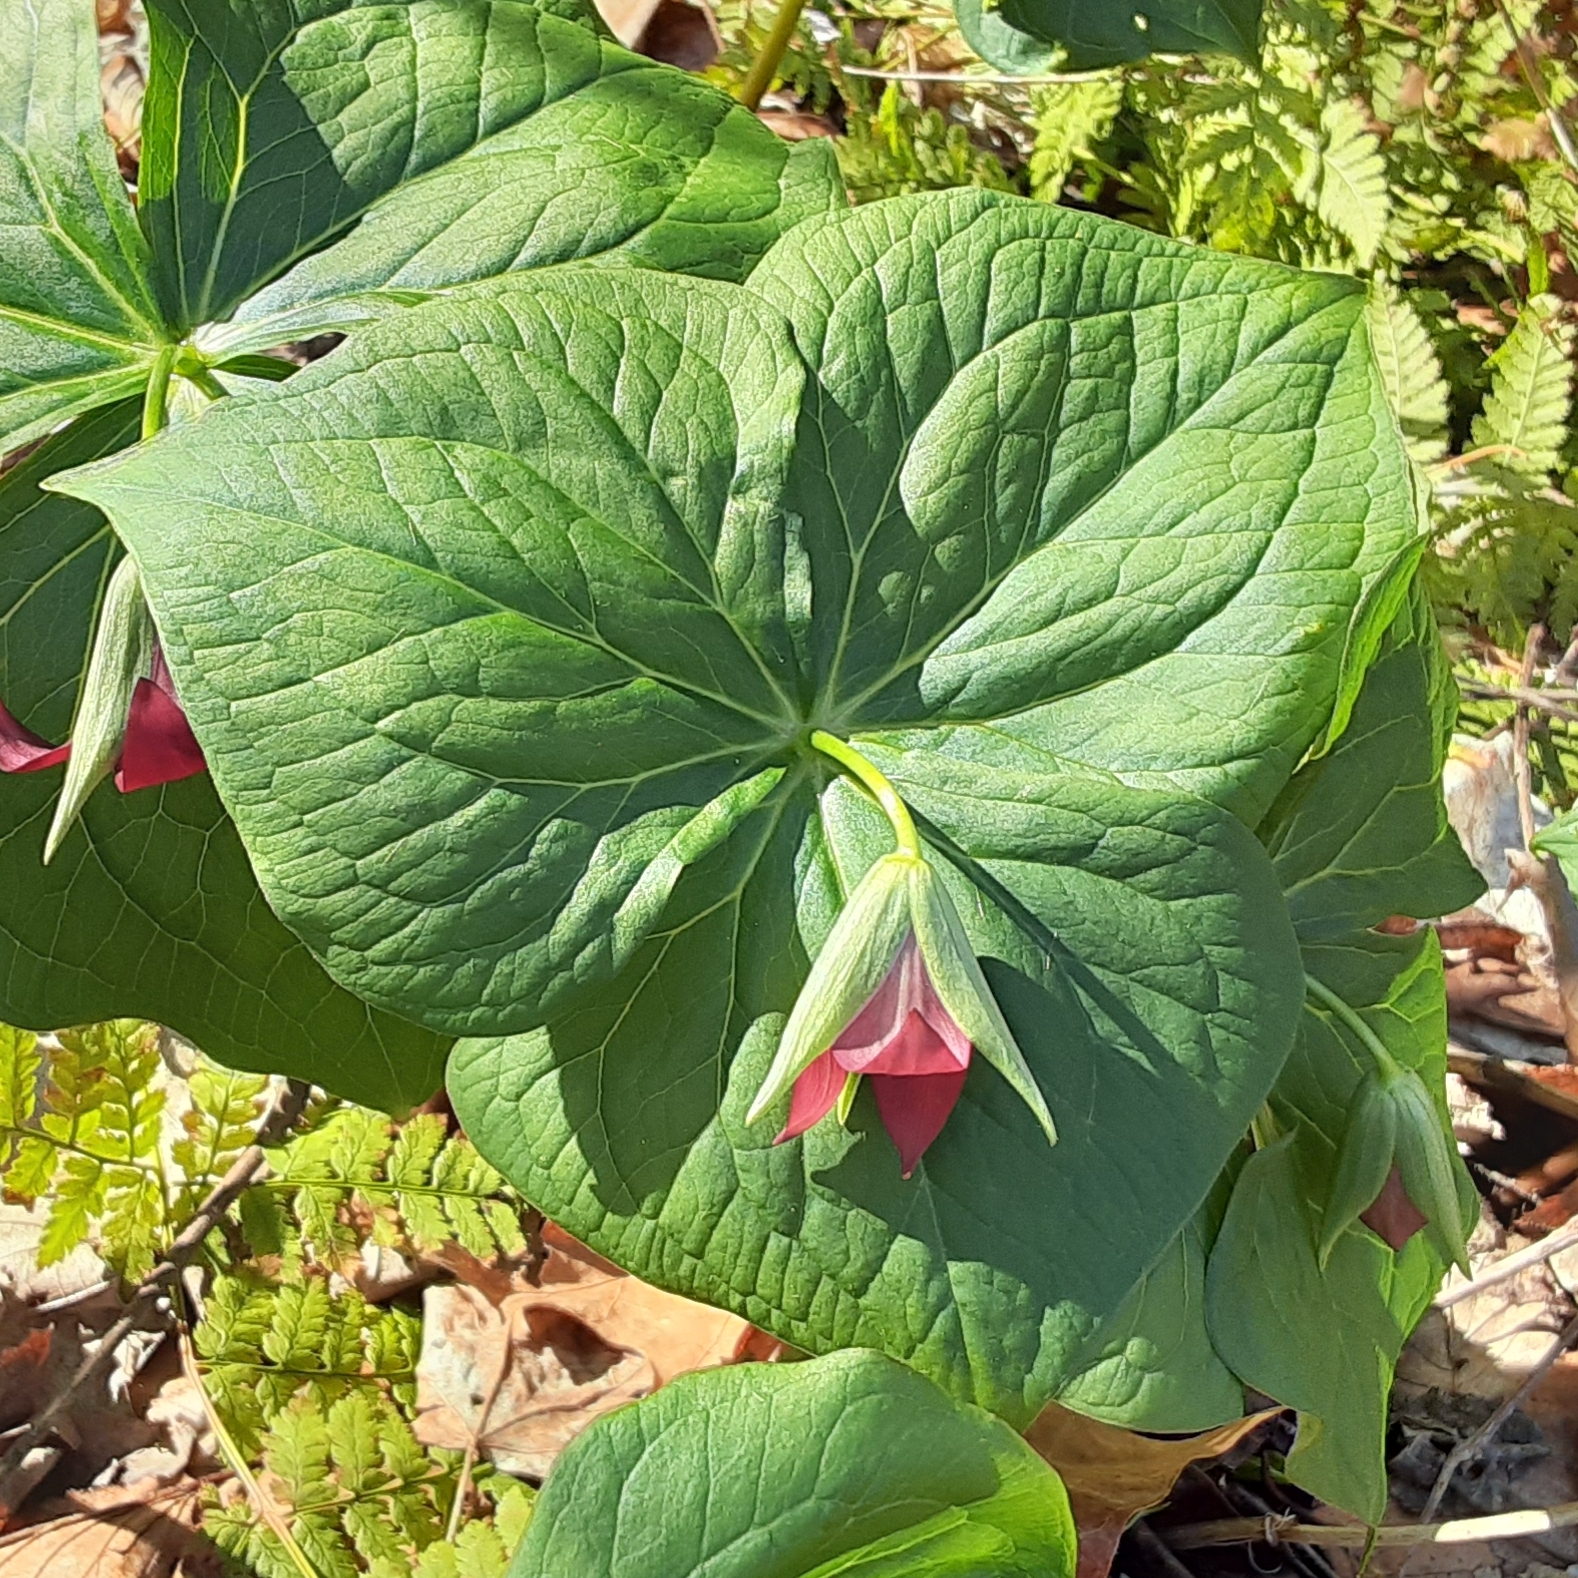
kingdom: Plantae
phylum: Tracheophyta
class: Liliopsida
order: Liliales
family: Melanthiaceae
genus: Trillium
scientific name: Trillium erectum
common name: Purple trillium
